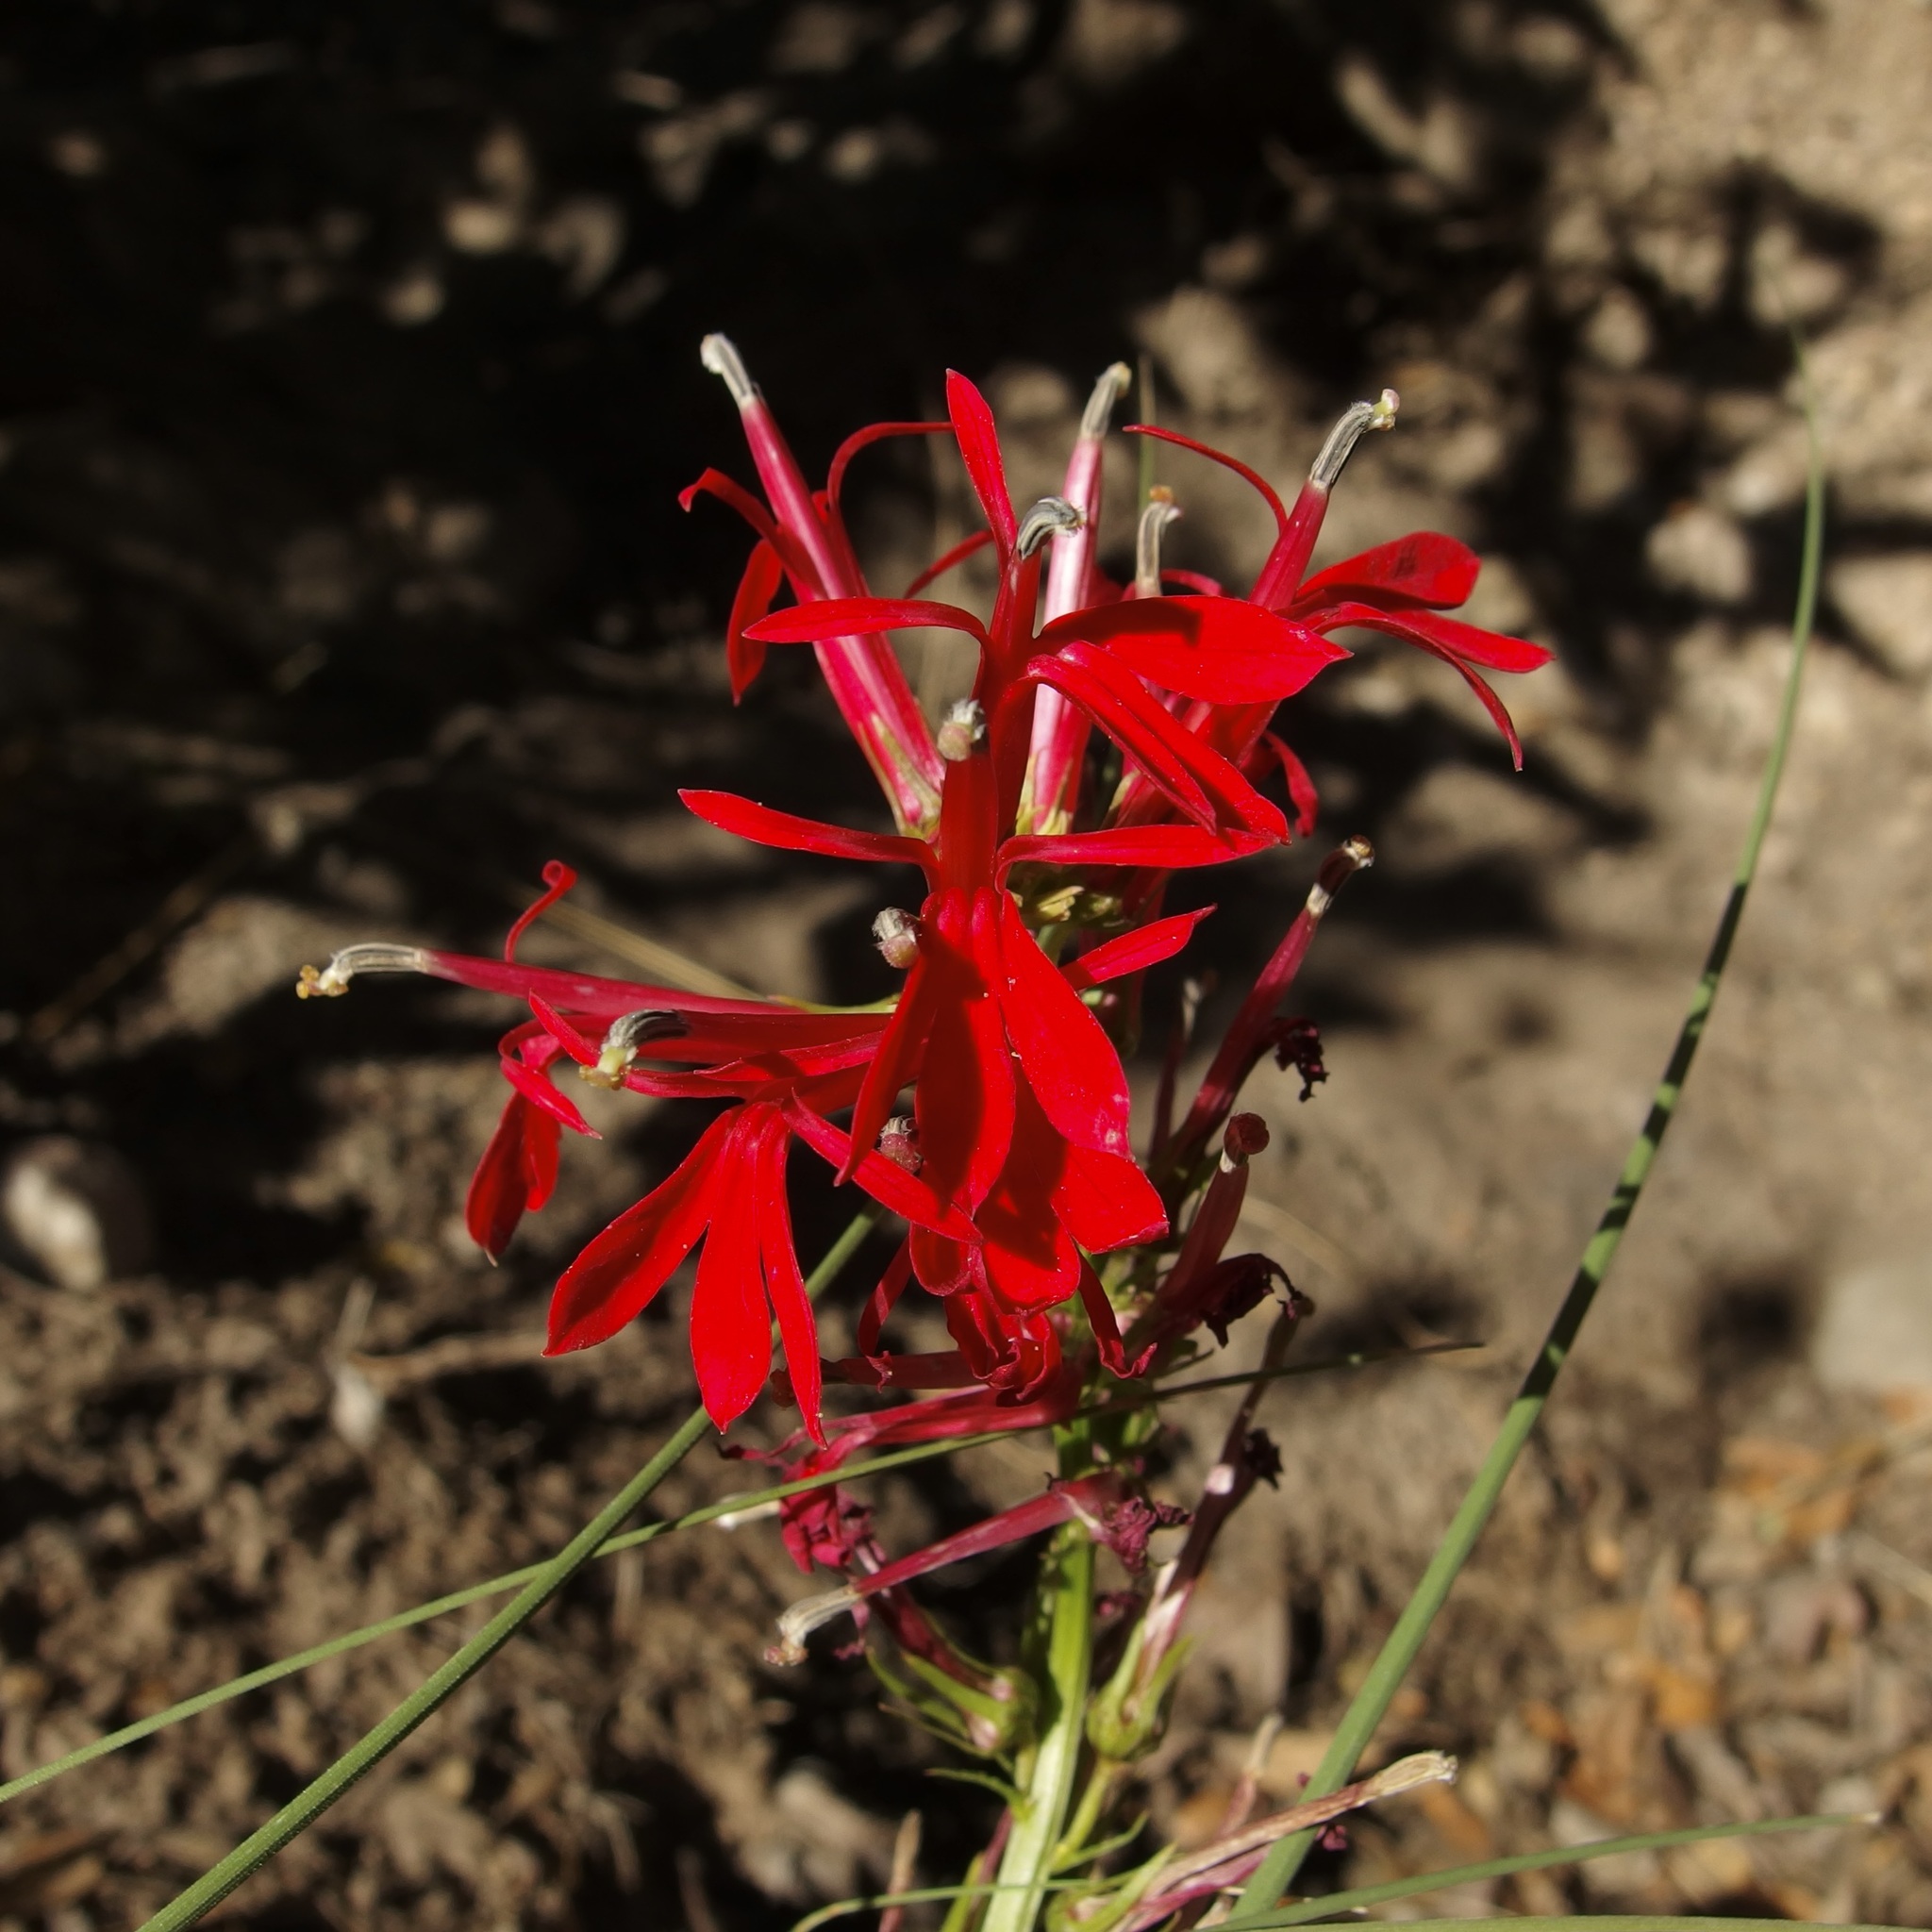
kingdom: Plantae
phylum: Tracheophyta
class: Magnoliopsida
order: Asterales
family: Campanulaceae
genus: Lobelia
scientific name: Lobelia cardinalis
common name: Cardinal flower
